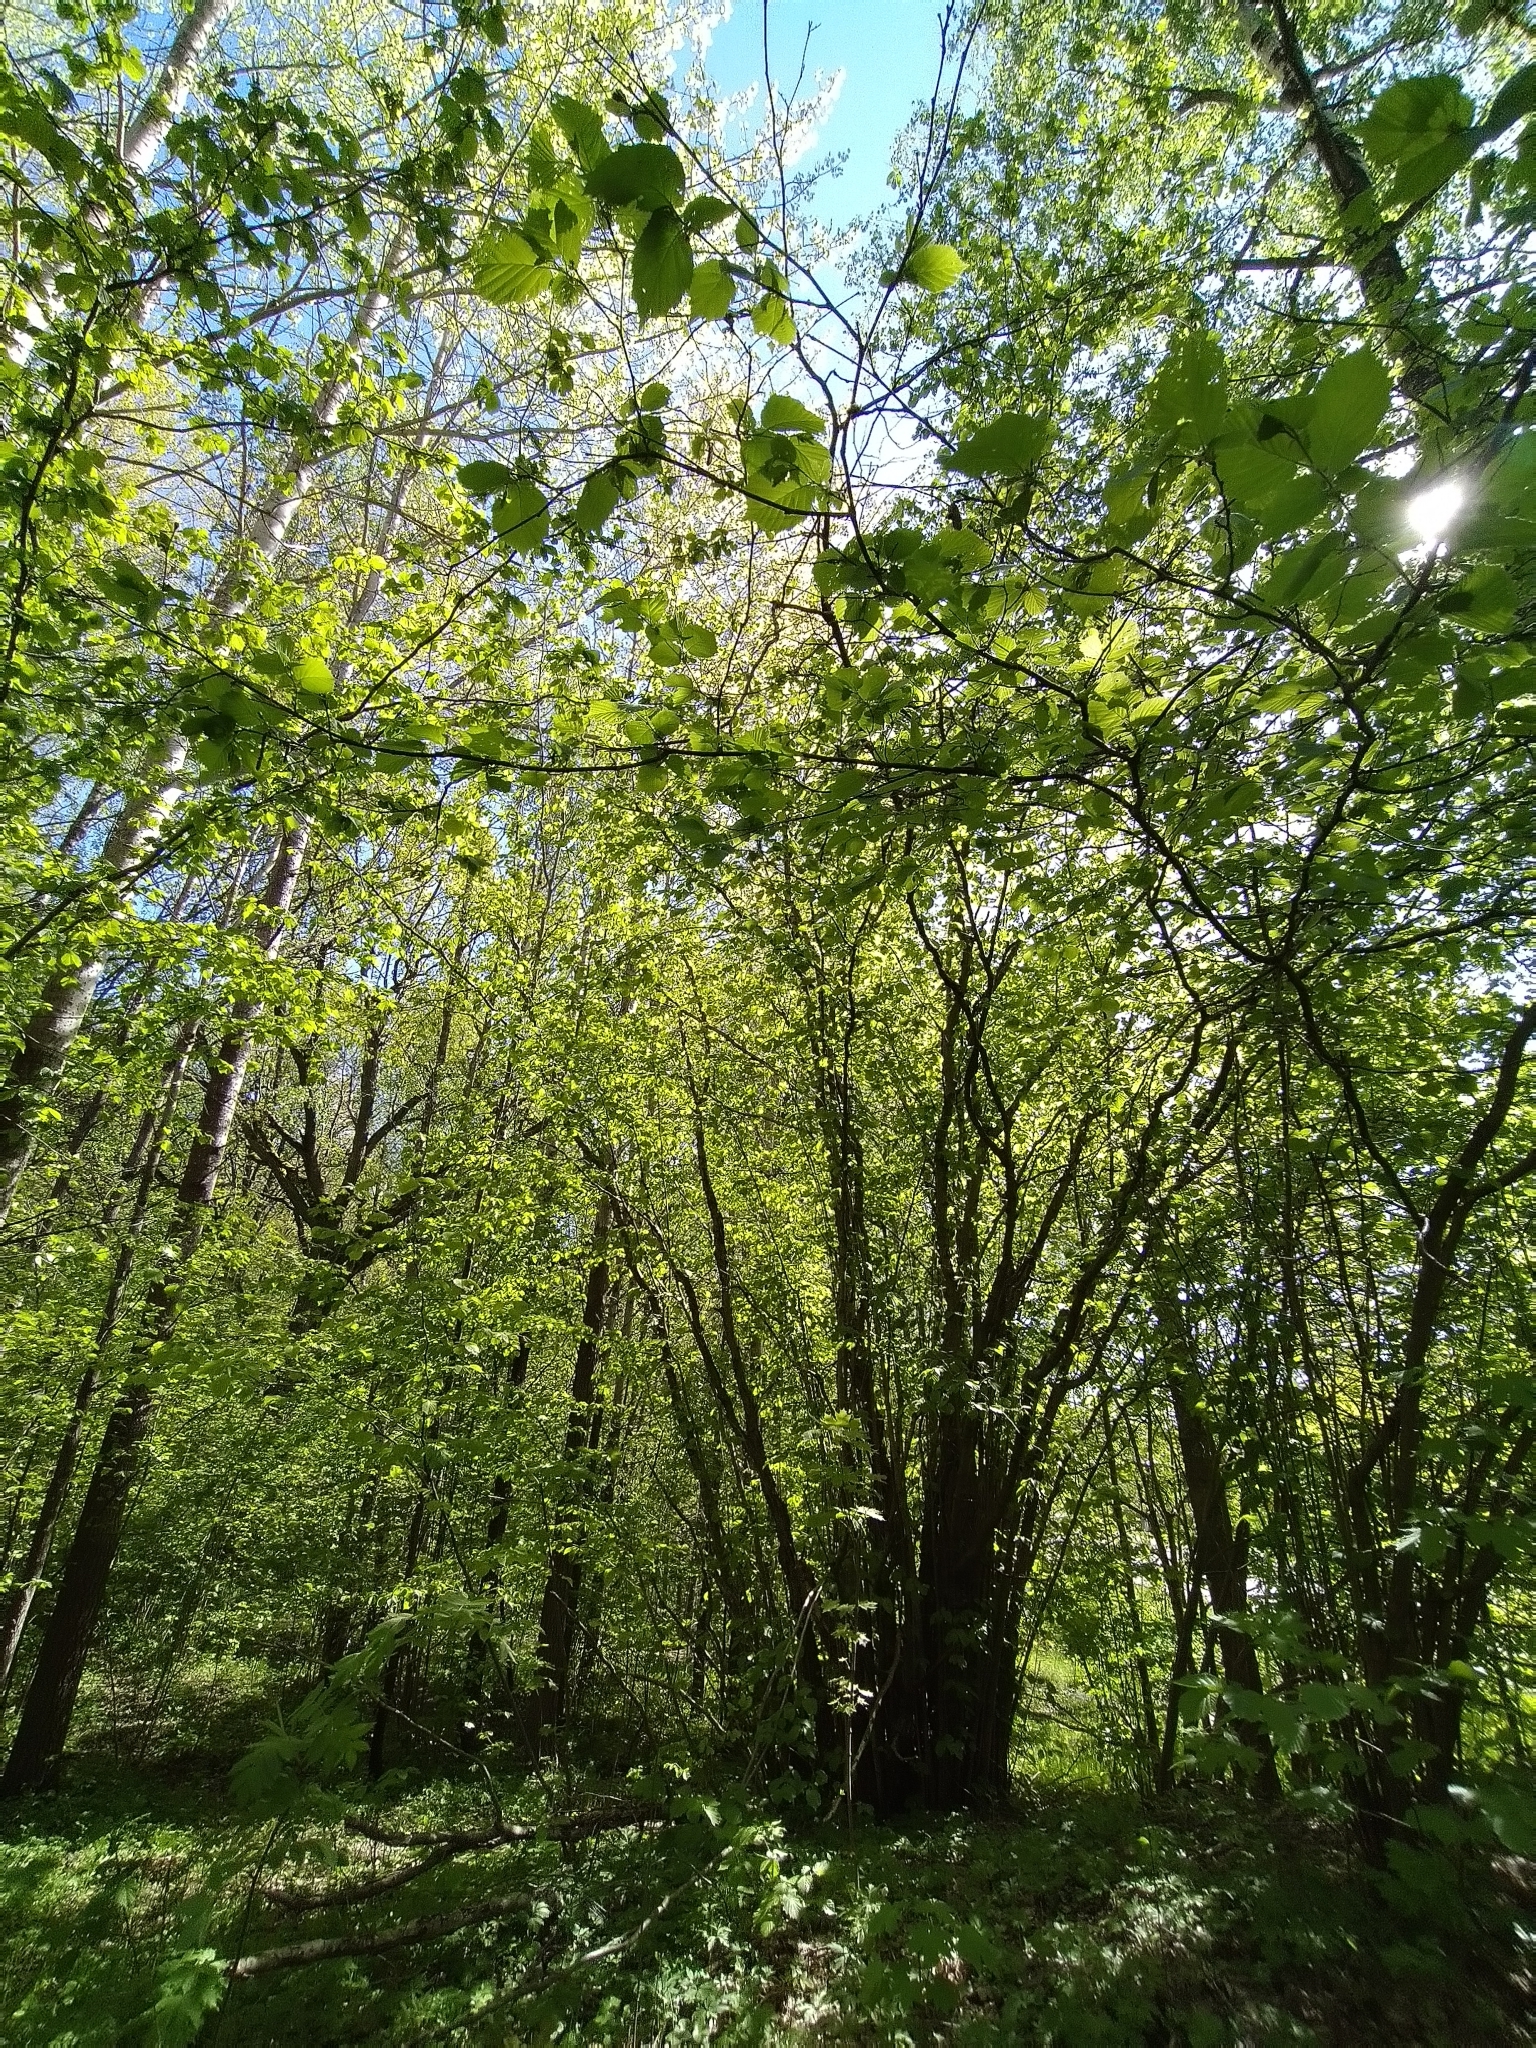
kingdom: Plantae
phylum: Tracheophyta
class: Magnoliopsida
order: Fagales
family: Betulaceae
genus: Corylus
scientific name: Corylus avellana
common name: European hazel
